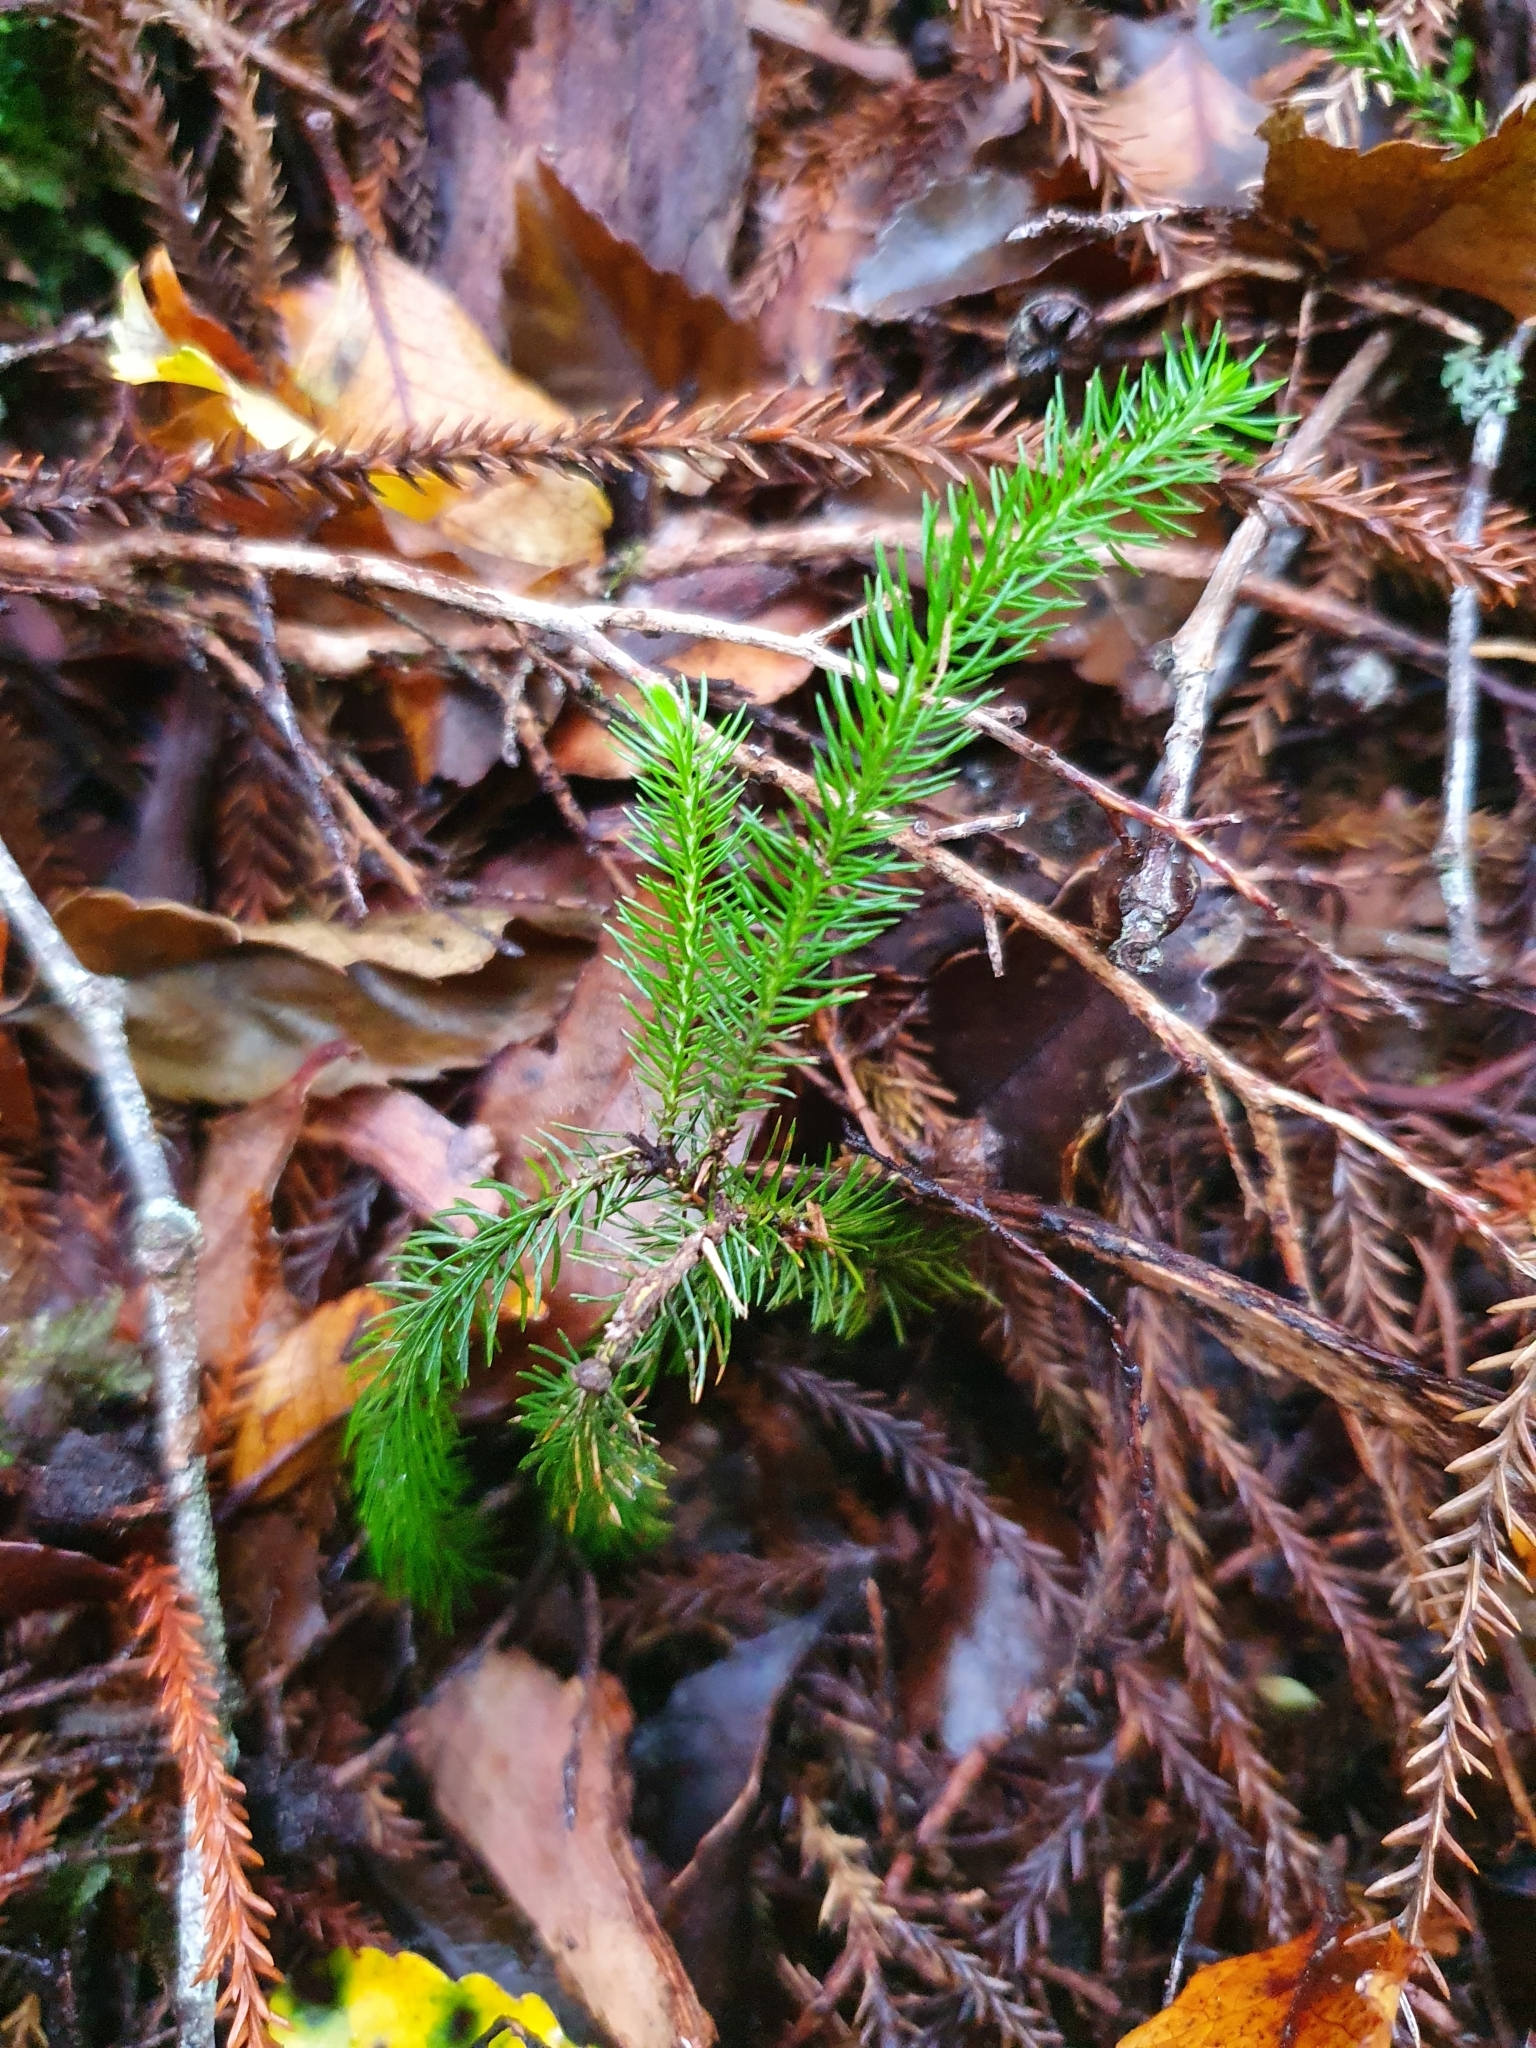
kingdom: Plantae
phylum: Tracheophyta
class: Pinopsida
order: Pinales
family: Podocarpaceae
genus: Dacrydium
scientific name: Dacrydium cupressinum
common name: Red pine
